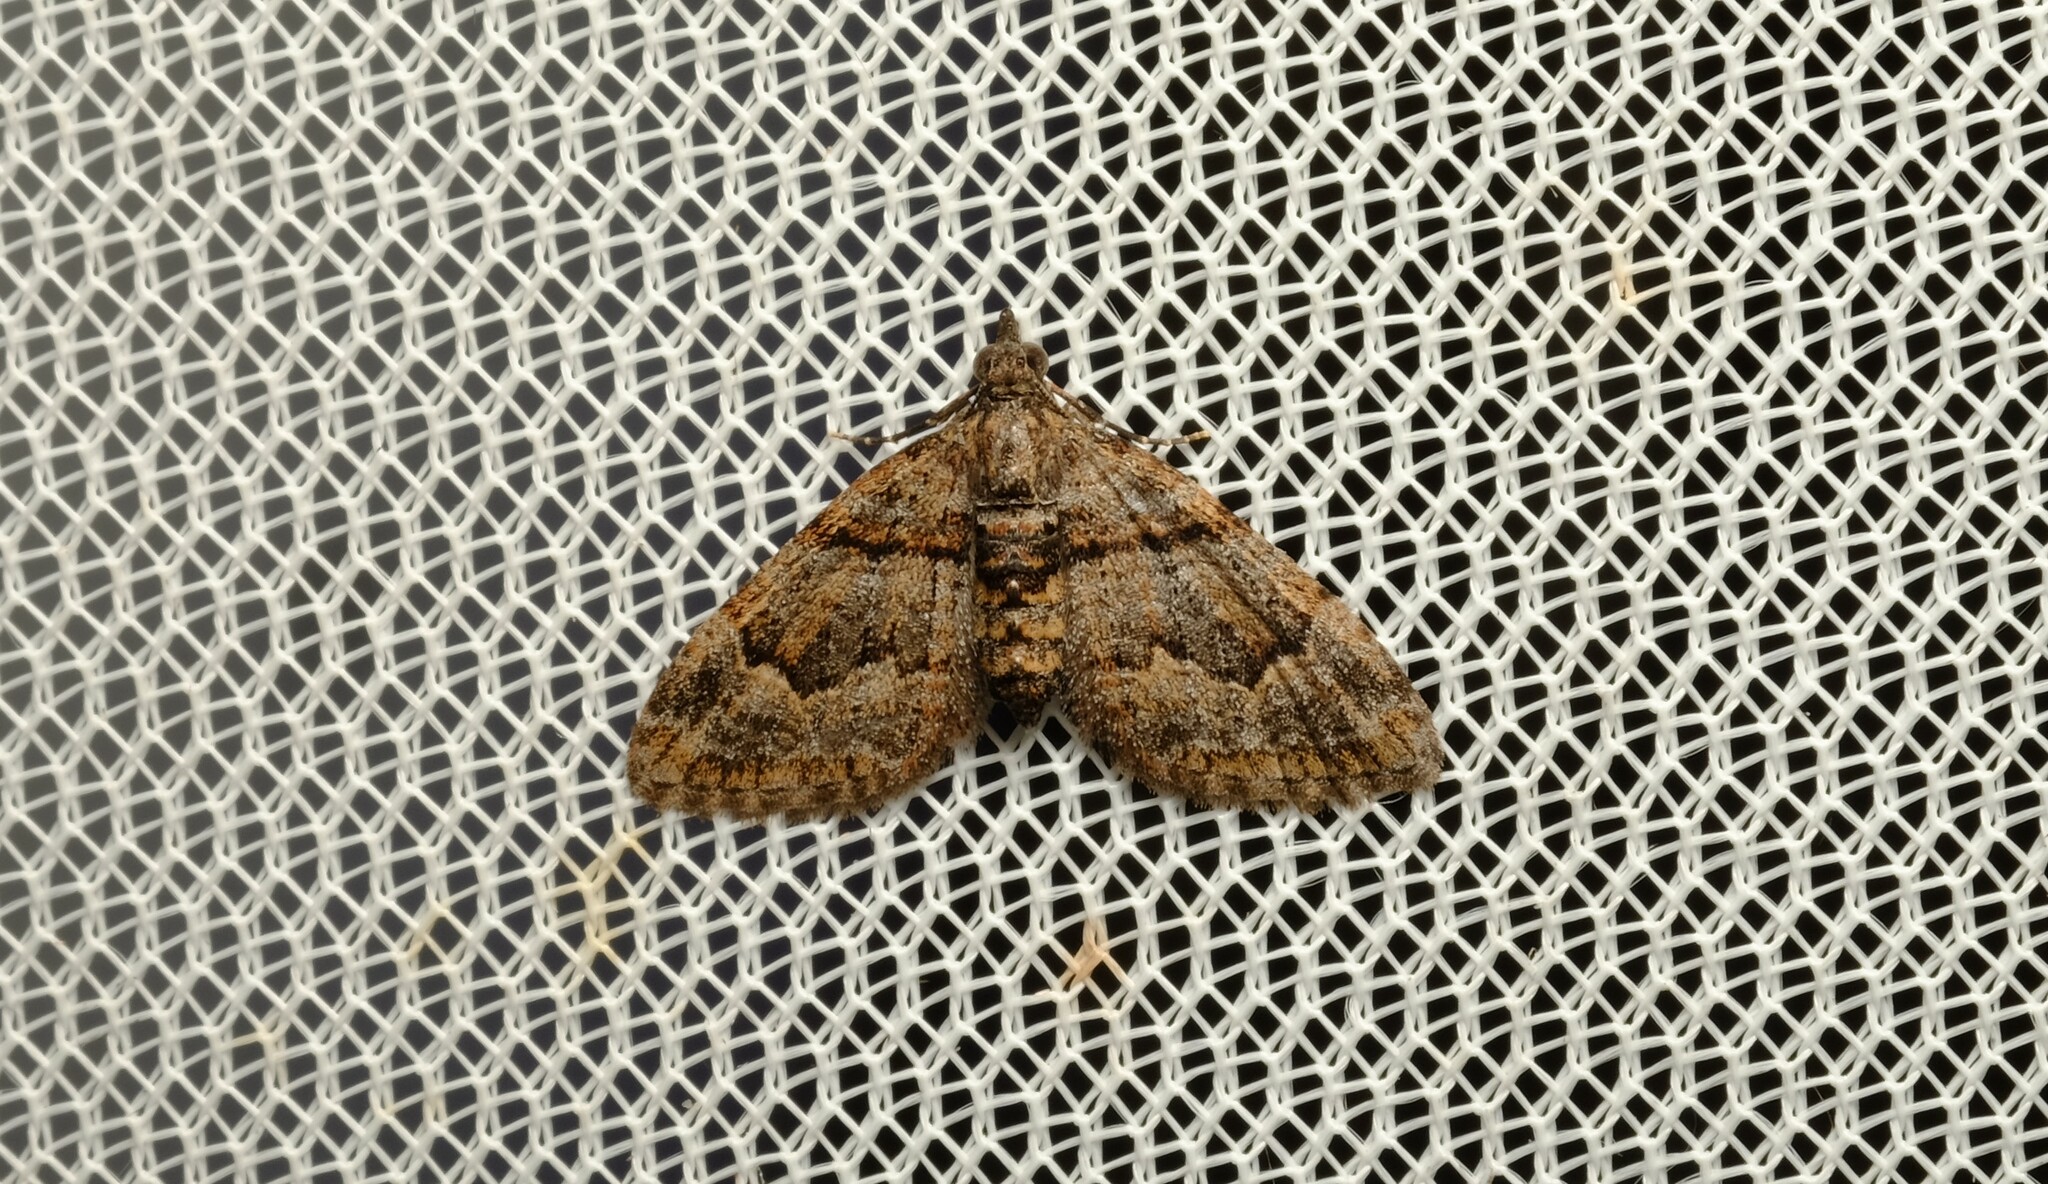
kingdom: Animalia
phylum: Arthropoda
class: Insecta
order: Lepidoptera
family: Geometridae
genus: Phrissogonus
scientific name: Phrissogonus laticostata
